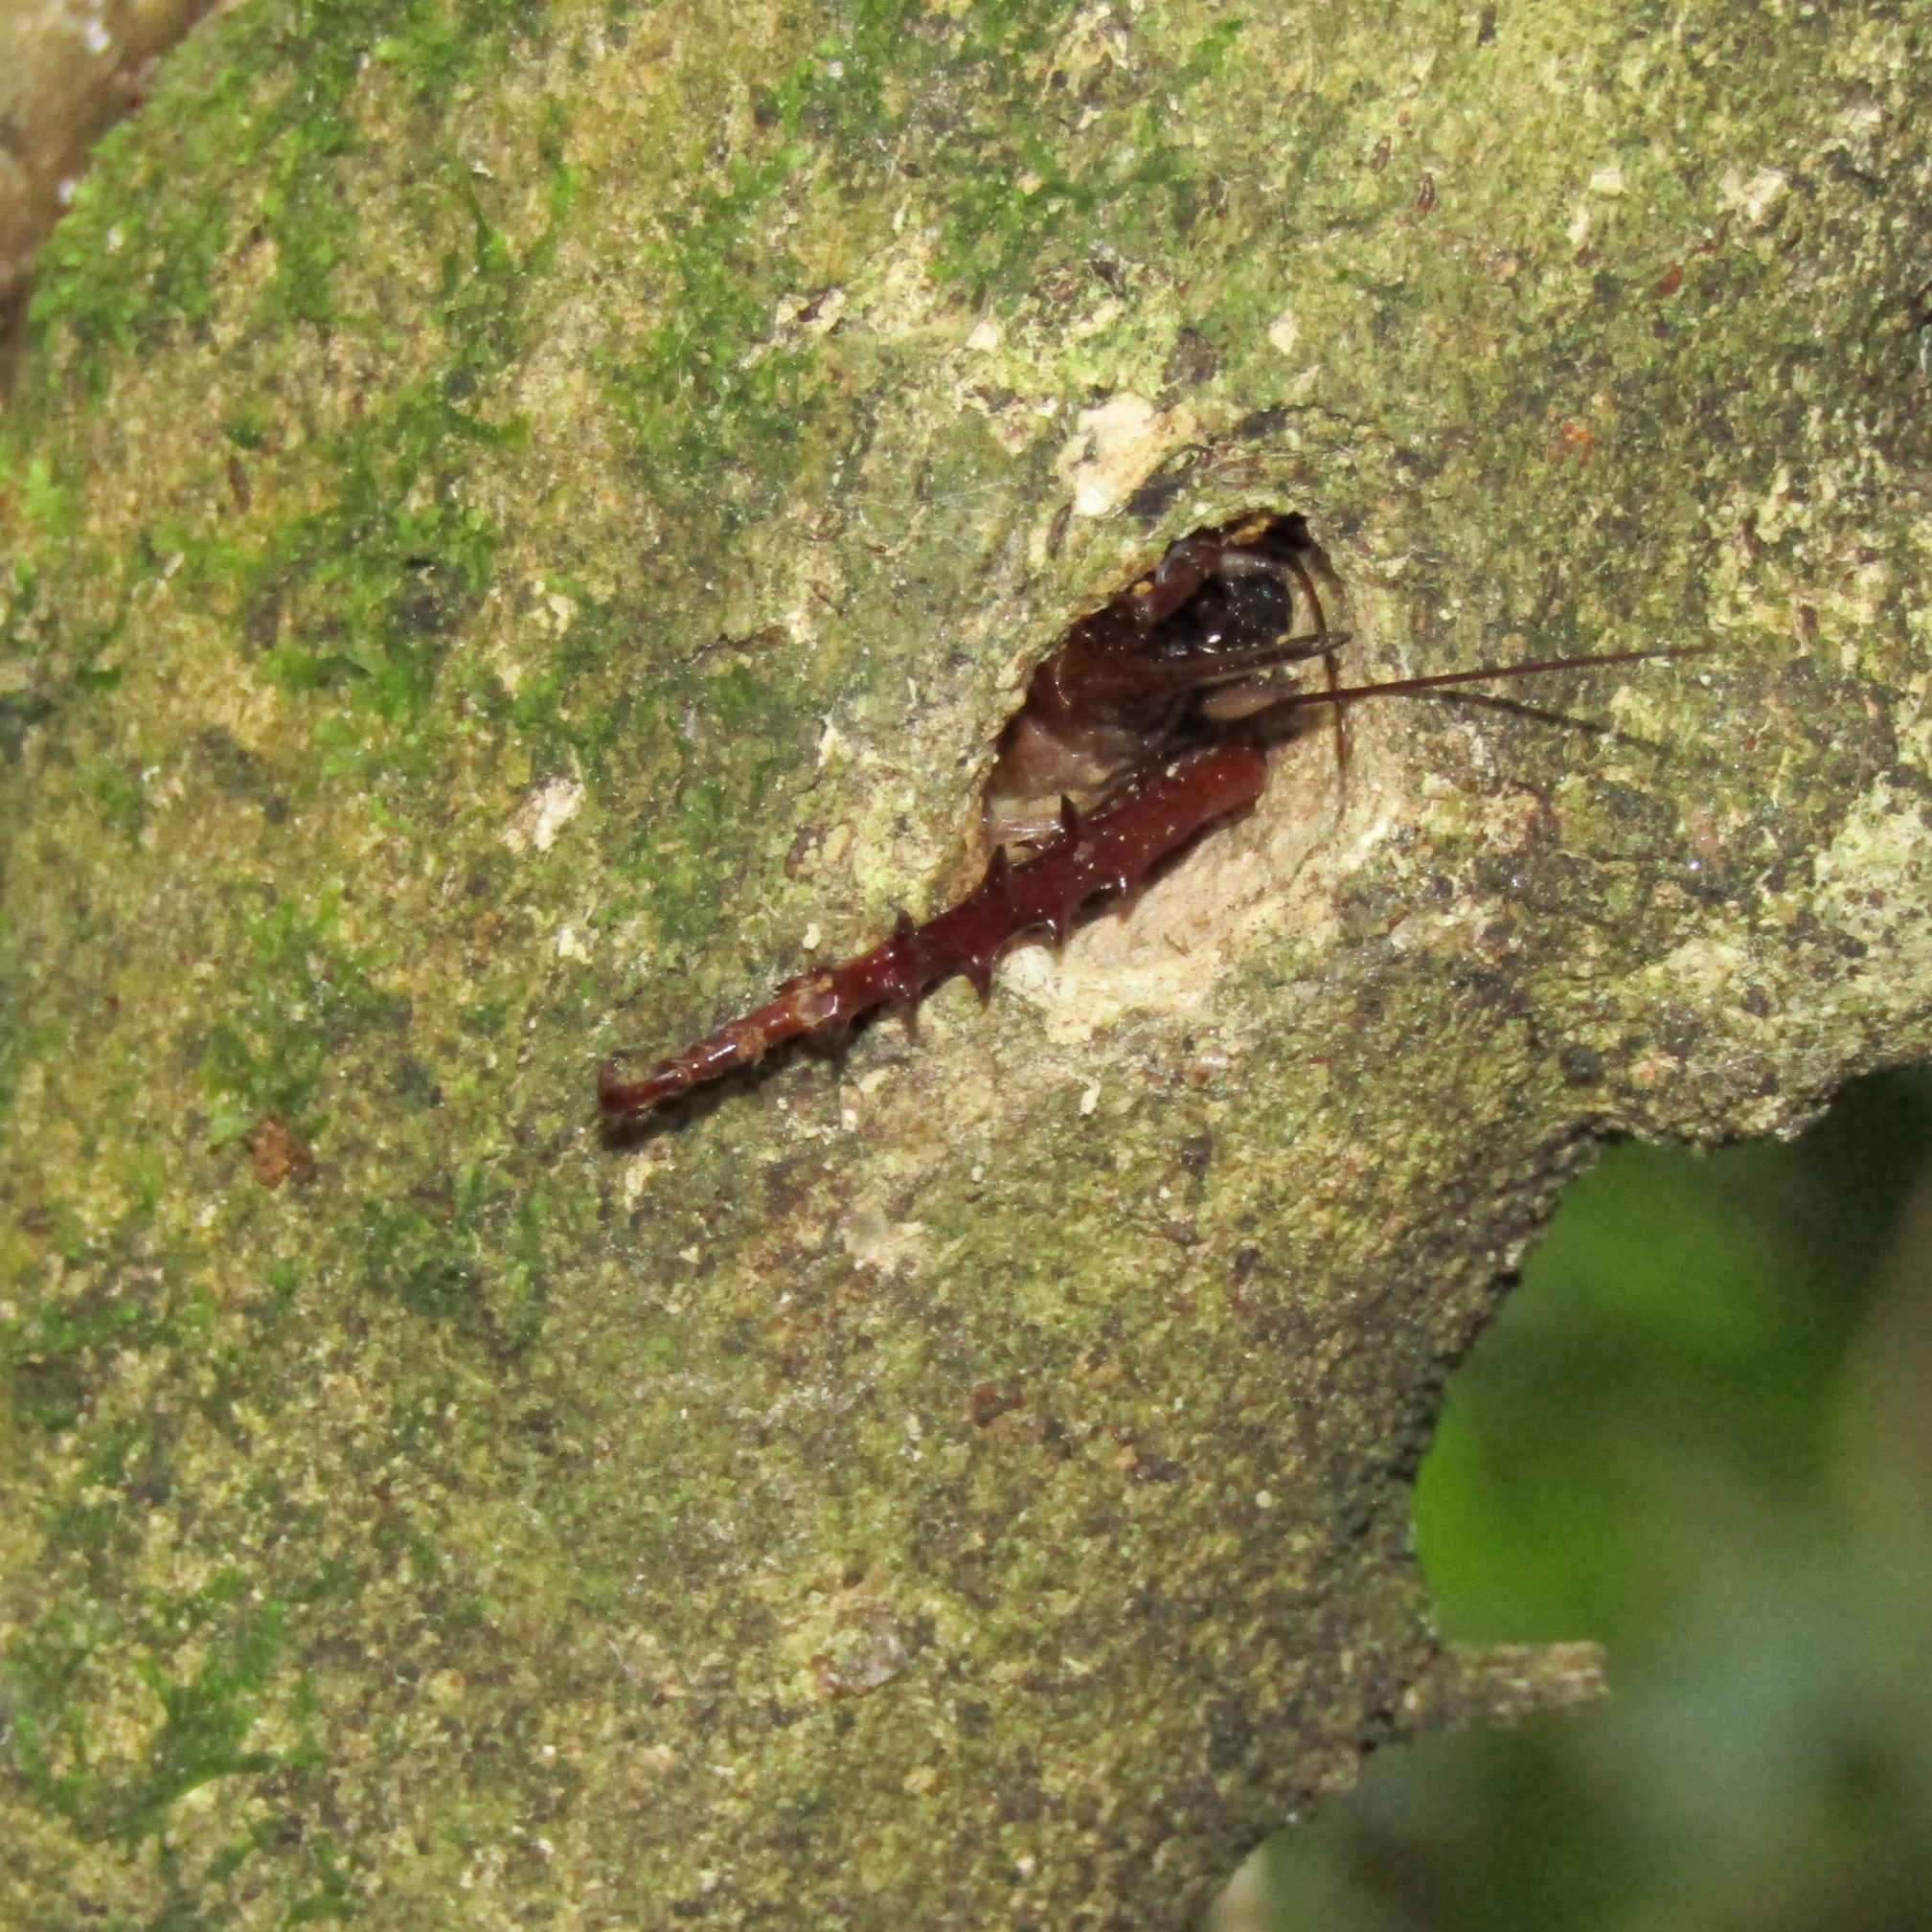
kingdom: Animalia
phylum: Arthropoda
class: Insecta
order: Orthoptera
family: Anostostomatidae
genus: Hemideina
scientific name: Hemideina crassidens
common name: Wellington tree weta
